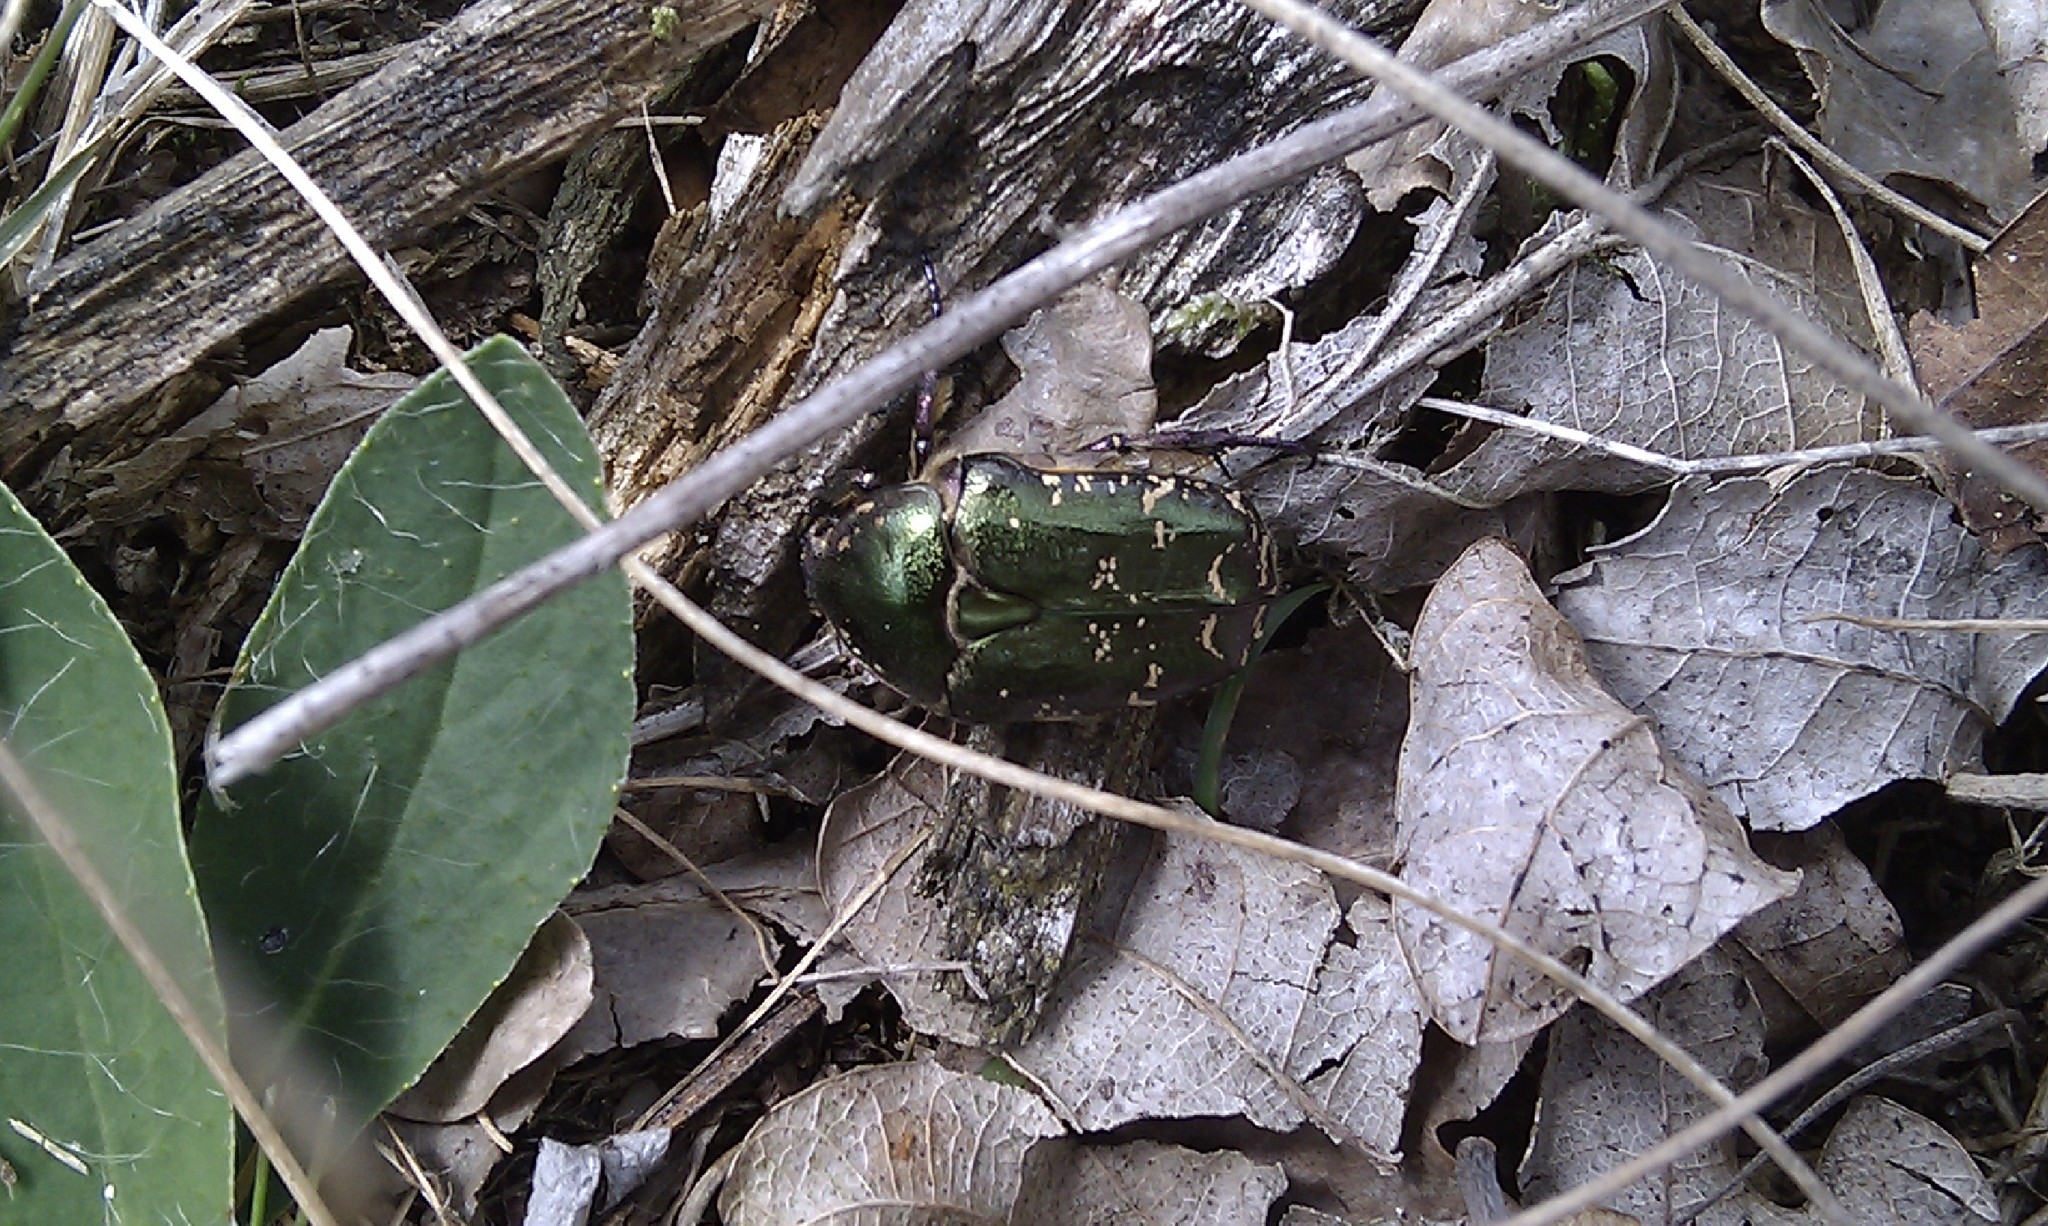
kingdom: Animalia
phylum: Arthropoda
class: Insecta
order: Coleoptera
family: Scarabaeidae
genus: Protaetia
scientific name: Protaetia cuprea
